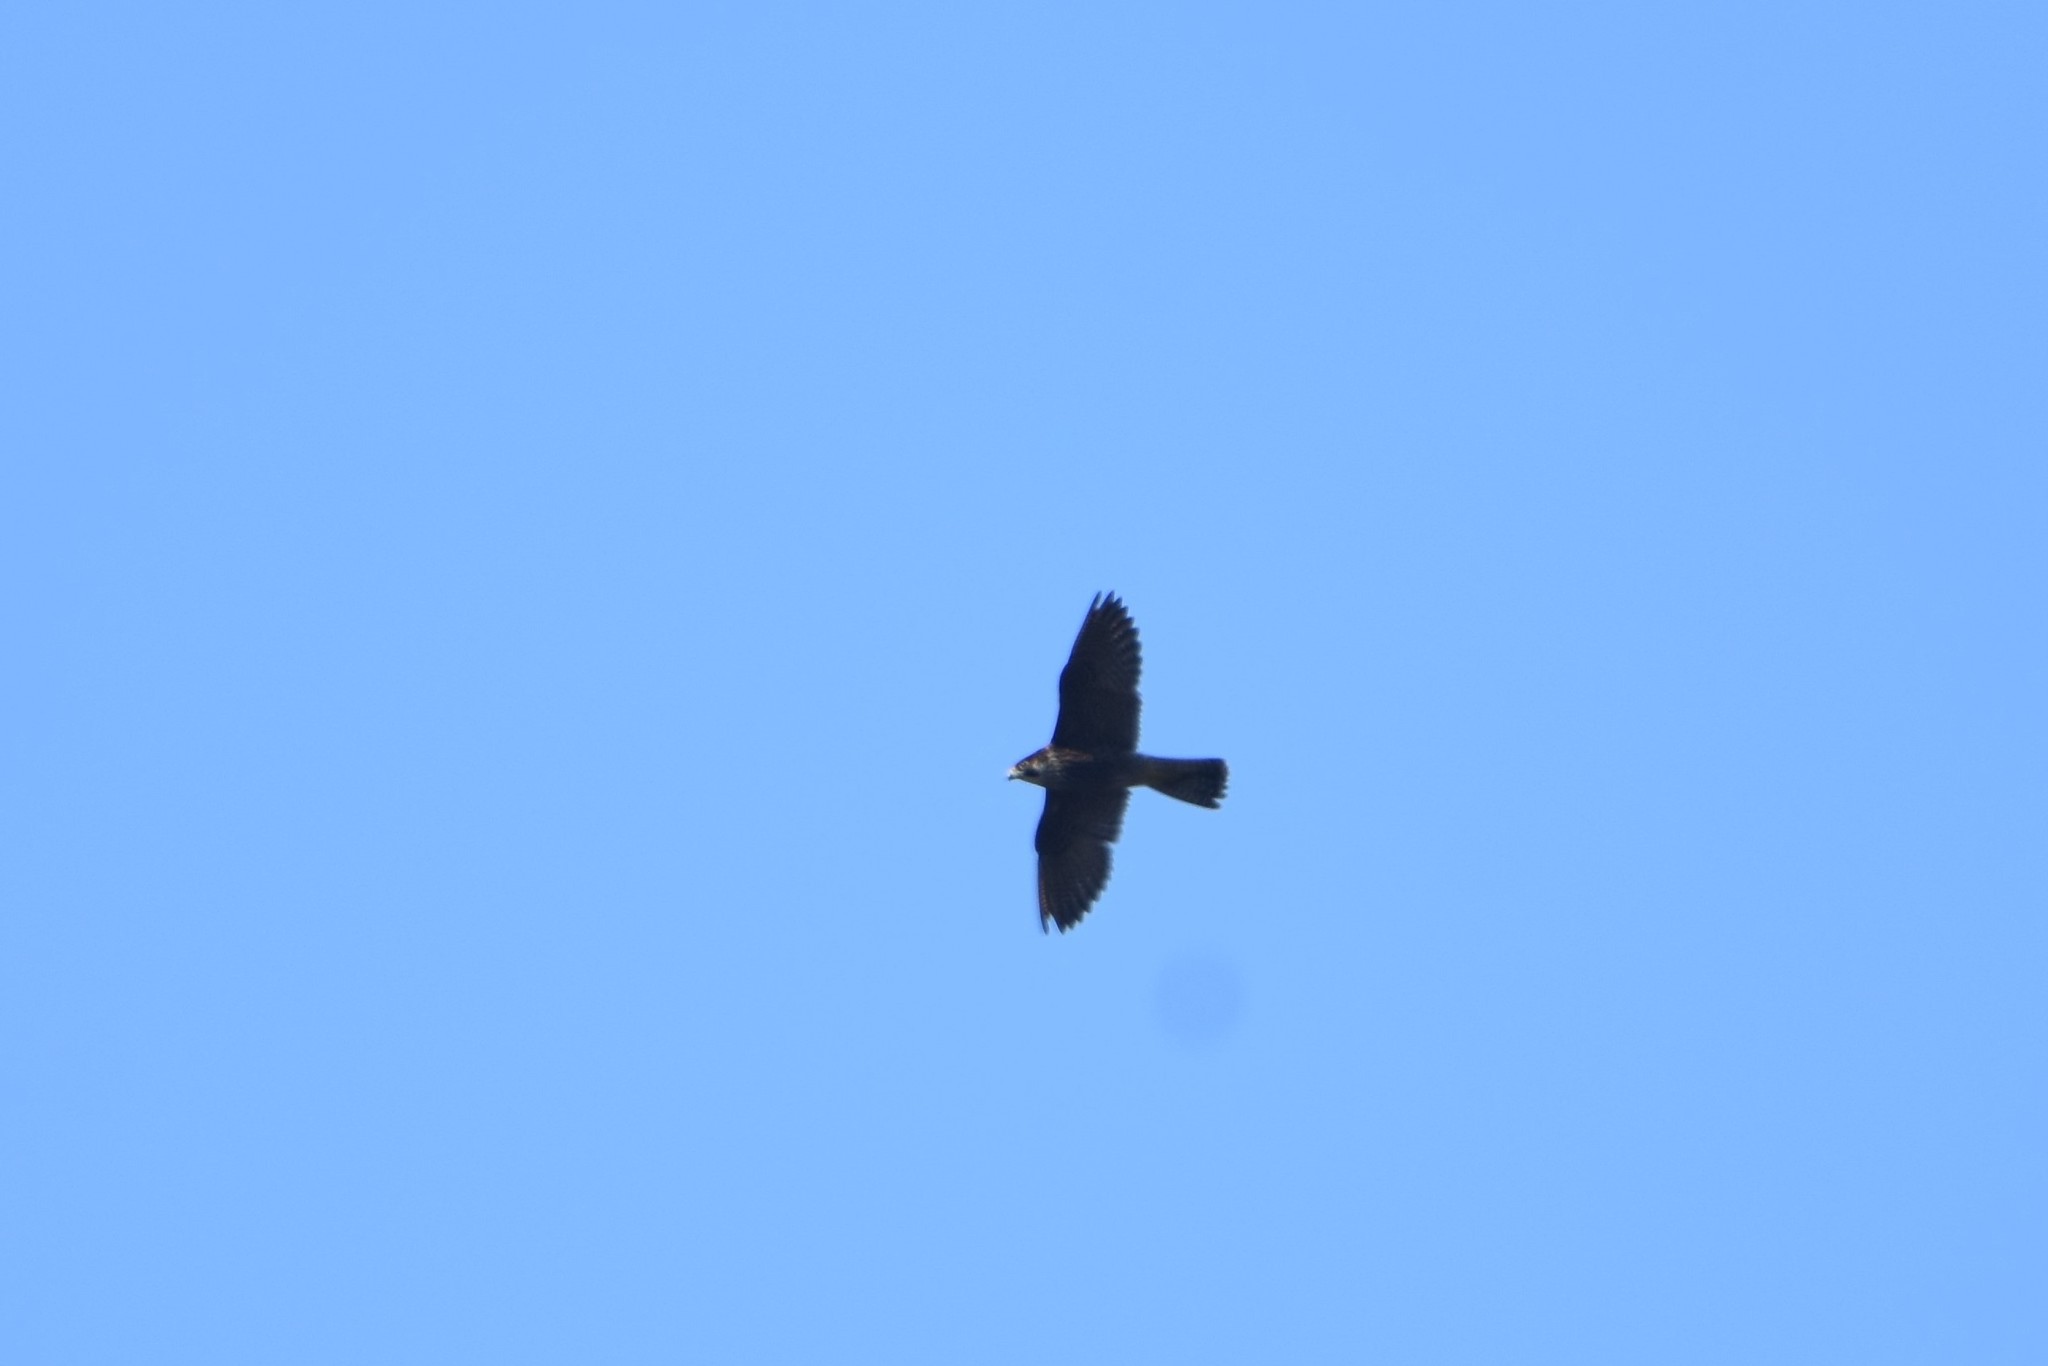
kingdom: Animalia
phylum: Chordata
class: Aves
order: Falconiformes
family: Falconidae
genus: Falco
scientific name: Falco peregrinus
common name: Peregrine falcon
